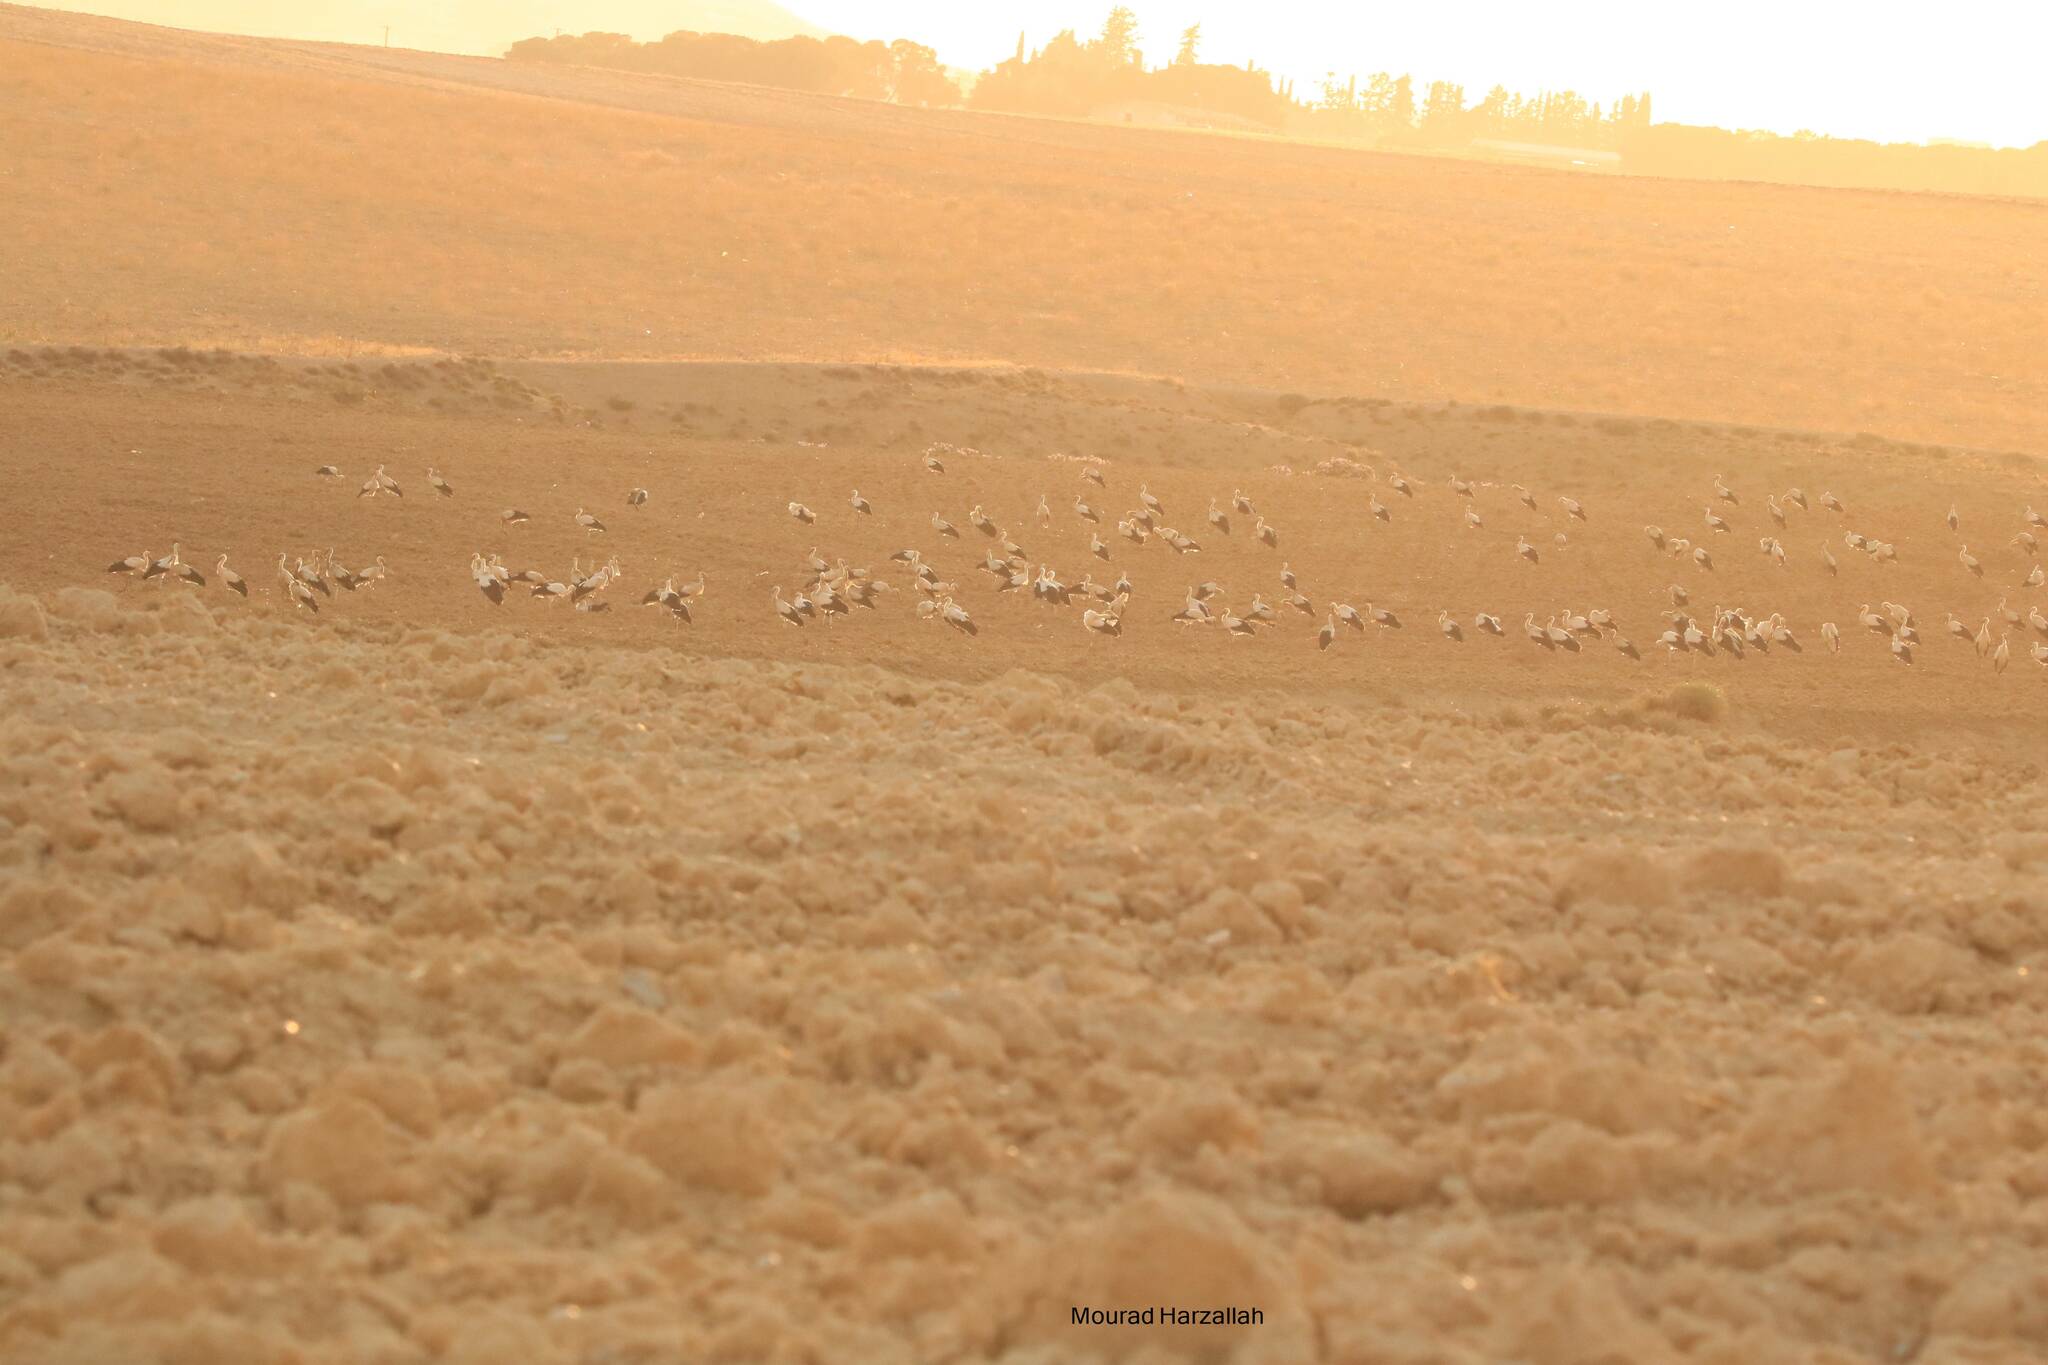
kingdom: Animalia
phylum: Chordata
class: Aves
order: Ciconiiformes
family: Ciconiidae
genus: Ciconia
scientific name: Ciconia ciconia
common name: White stork
